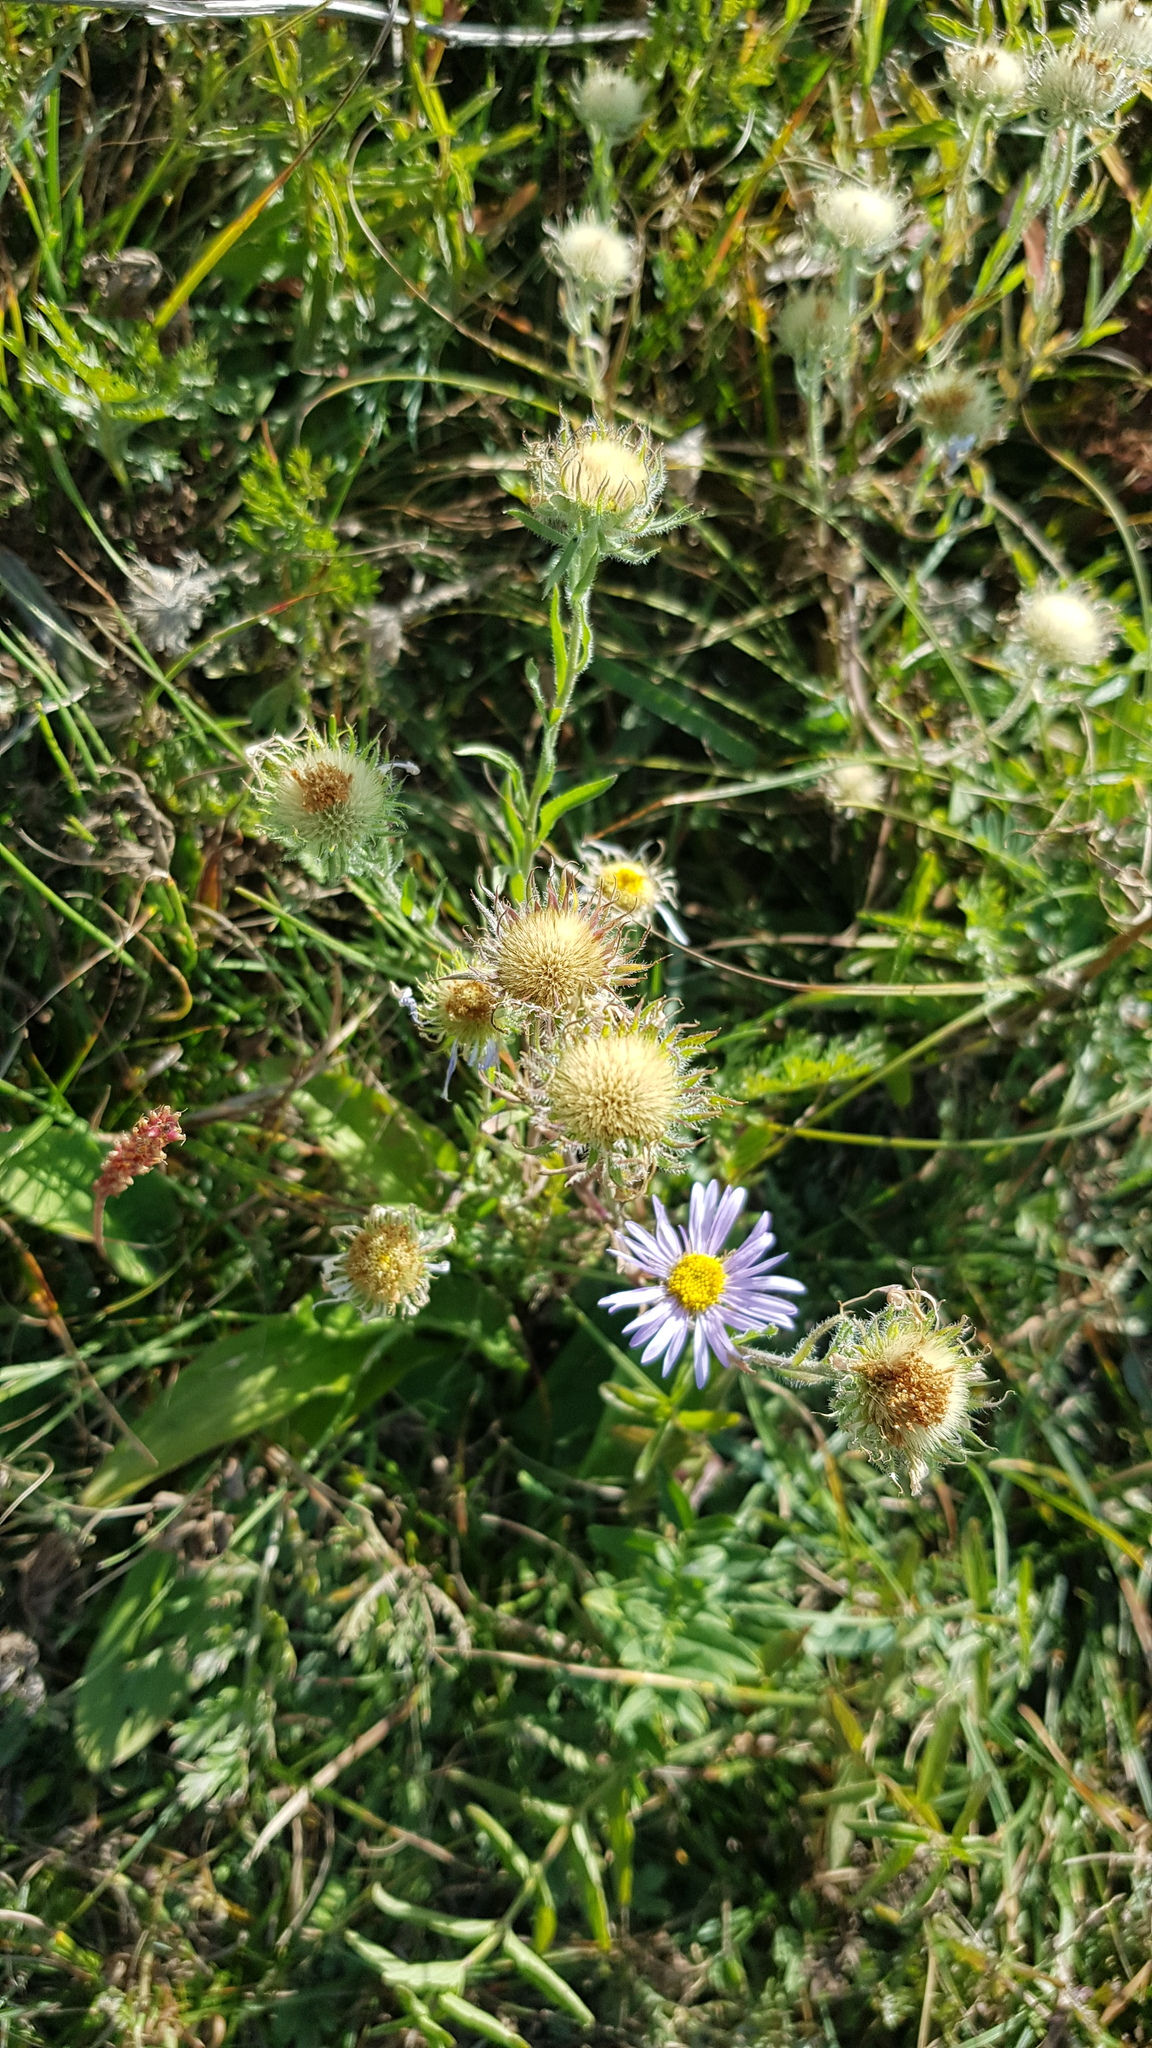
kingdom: Plantae
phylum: Tracheophyta
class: Magnoliopsida
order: Asterales
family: Asteraceae
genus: Aster
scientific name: Aster biennis
